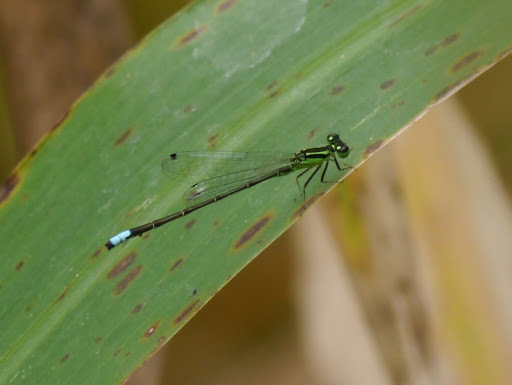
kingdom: Animalia
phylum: Arthropoda
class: Insecta
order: Odonata
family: Coenagrionidae
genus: Ischnura
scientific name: Ischnura verticalis
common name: Eastern forktail
